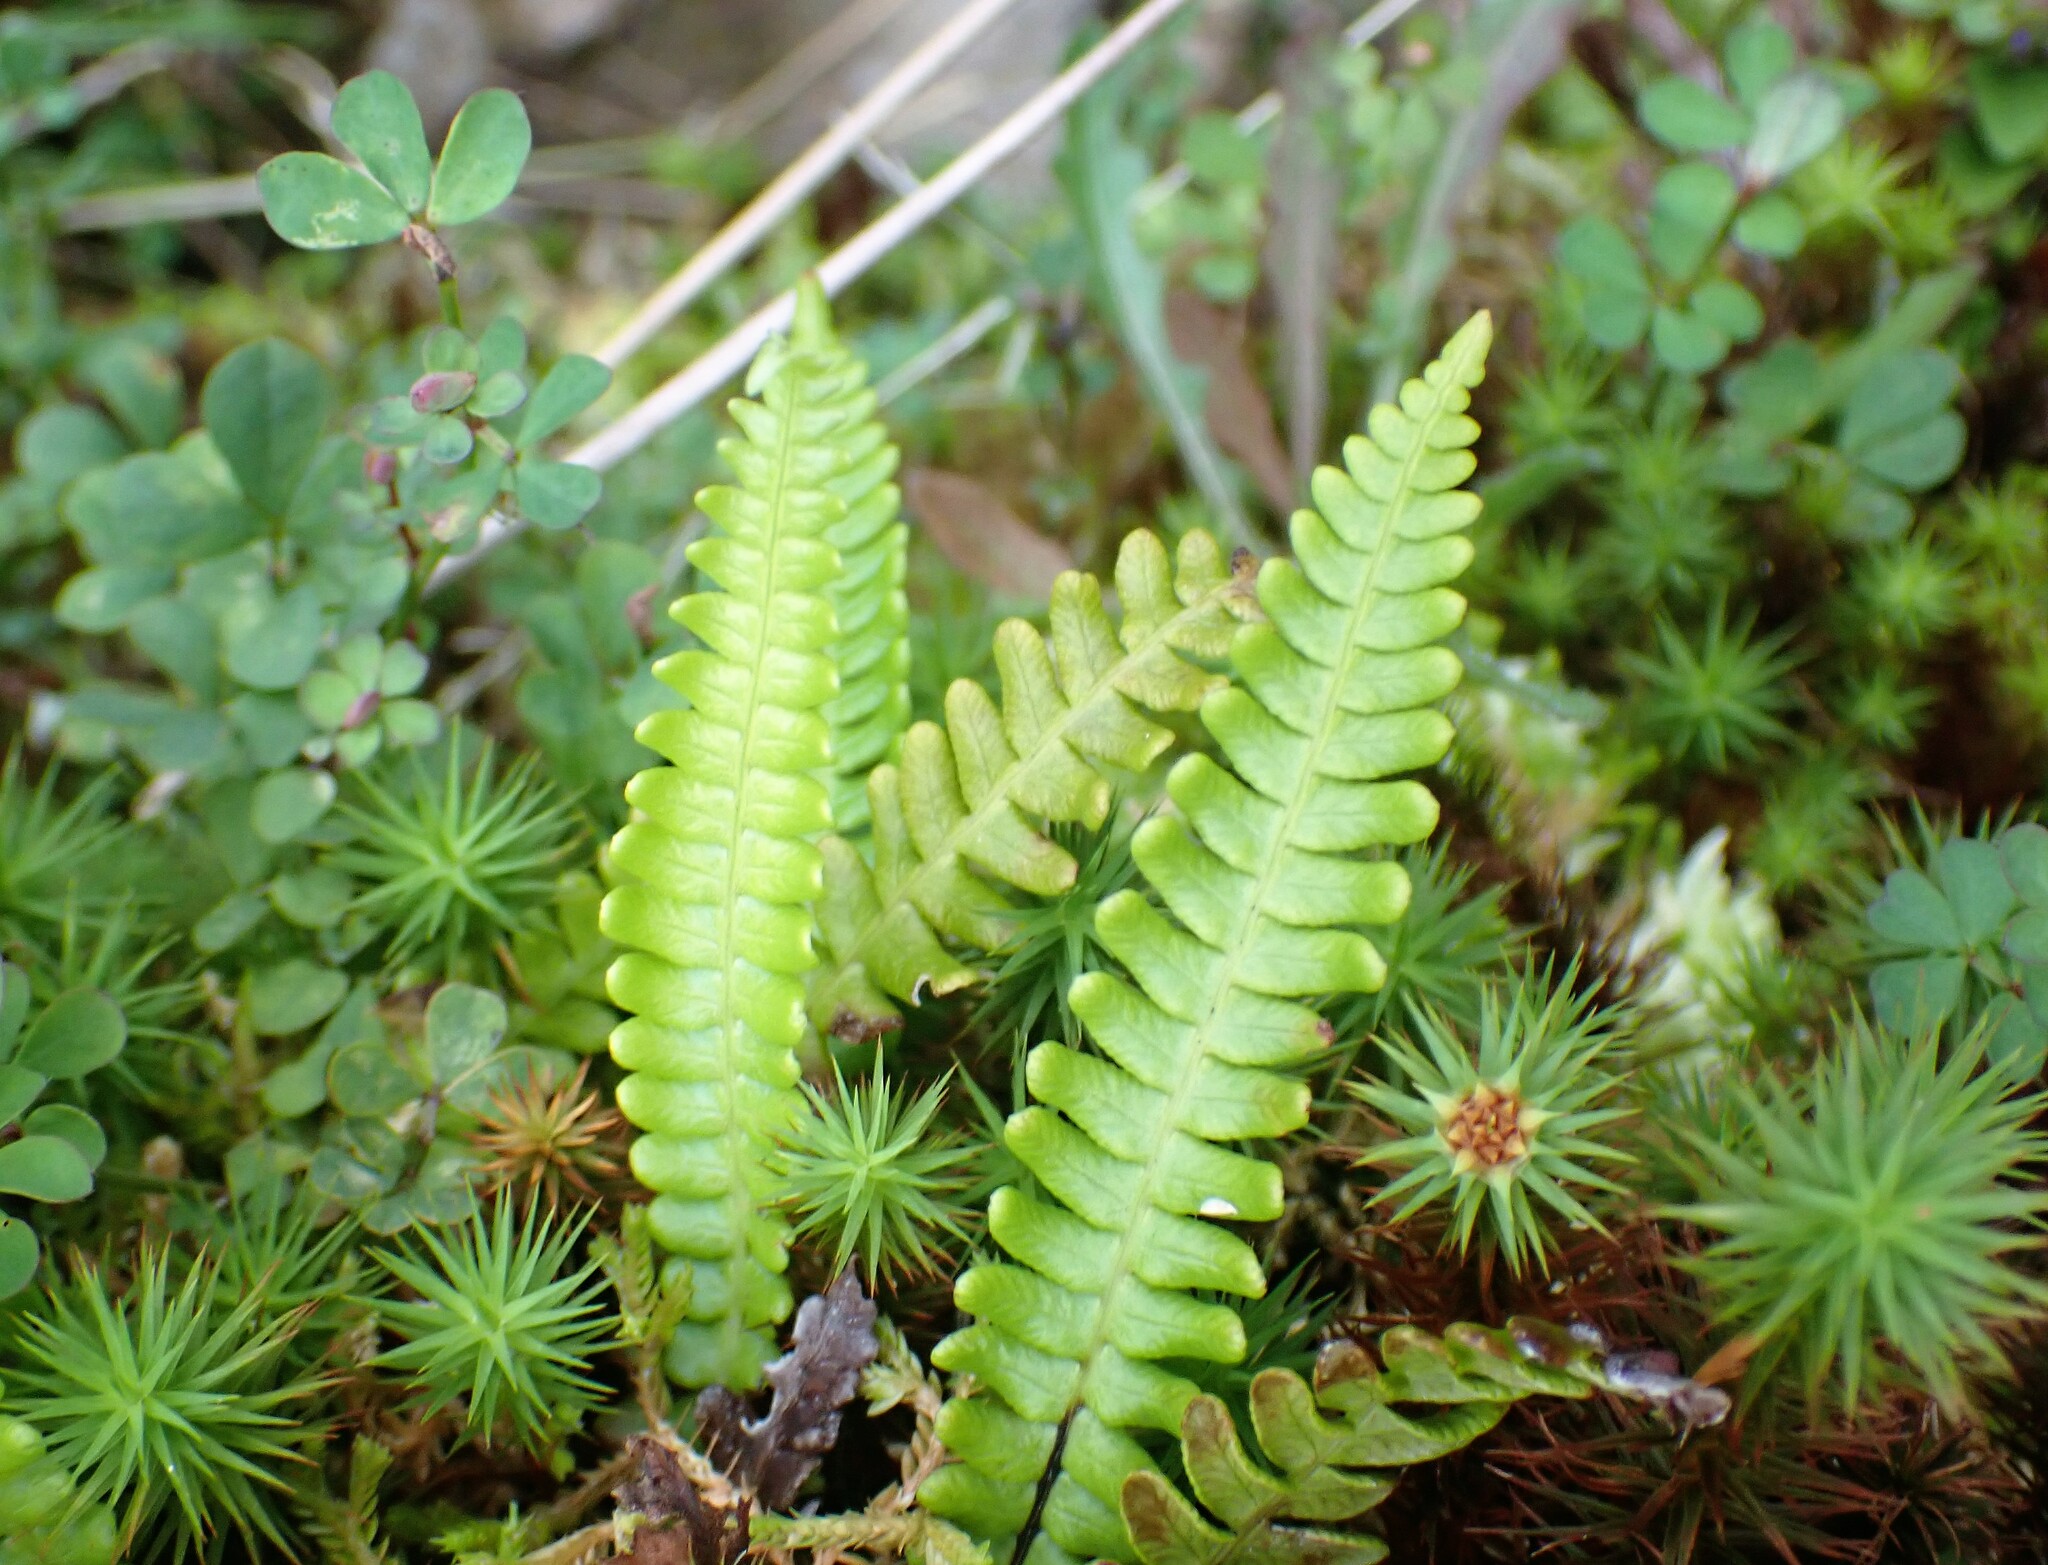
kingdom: Plantae
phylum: Tracheophyta
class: Polypodiopsida
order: Polypodiales
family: Blechnaceae
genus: Struthiopteris
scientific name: Struthiopteris spicant
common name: Deer fern
